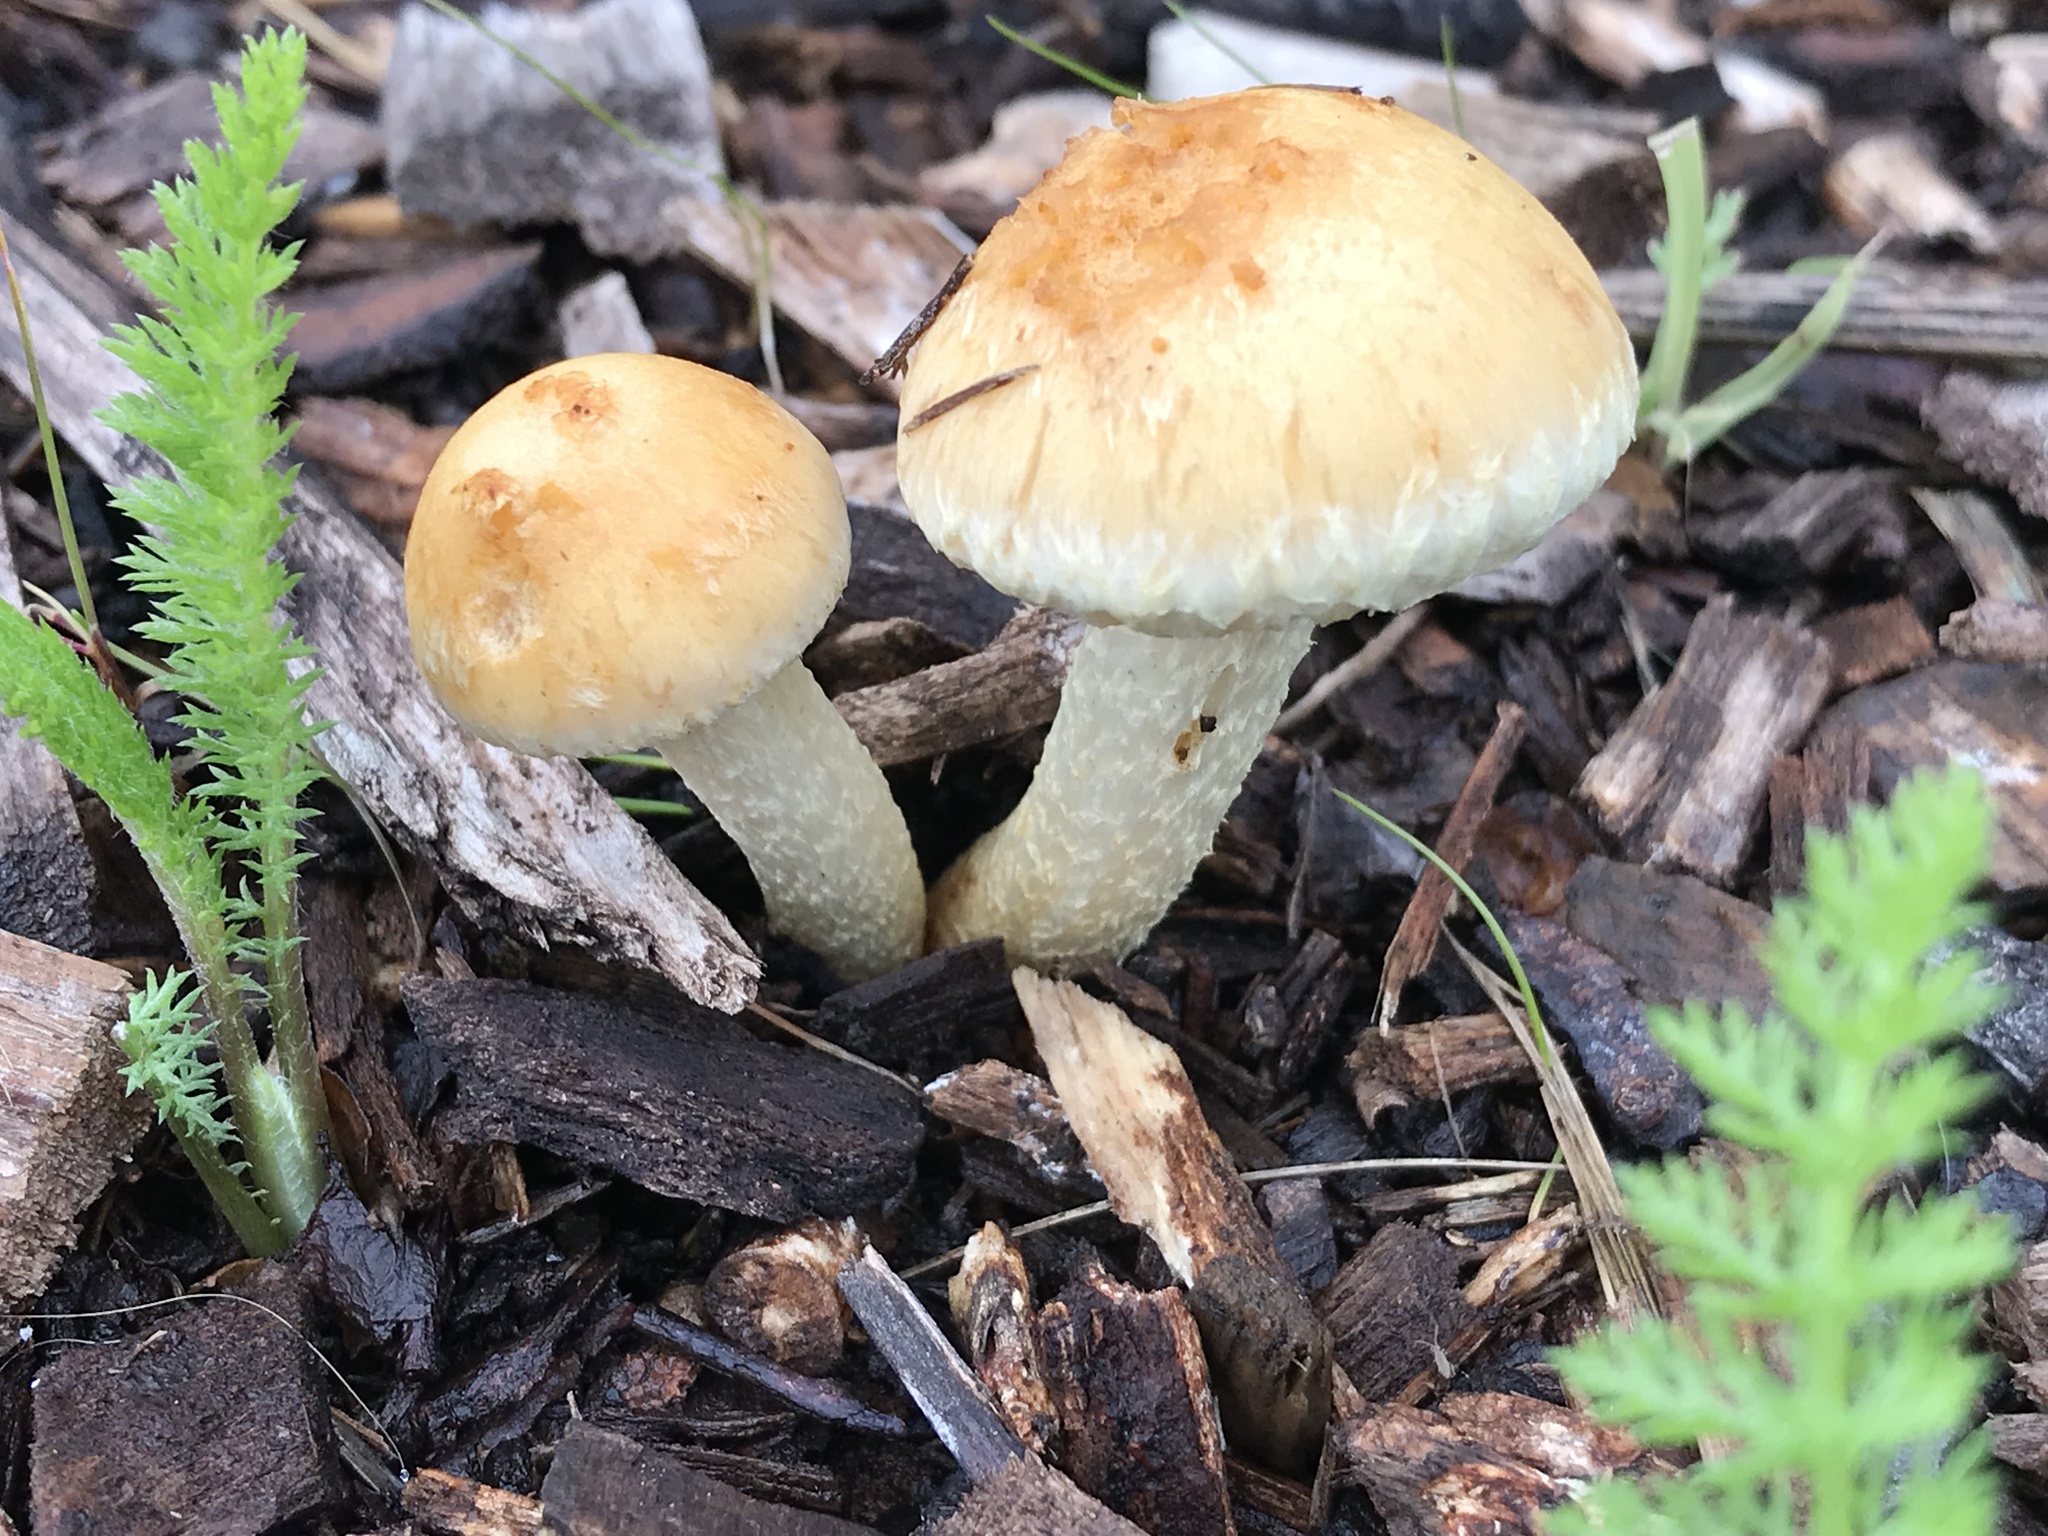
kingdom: Fungi
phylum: Basidiomycota
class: Agaricomycetes
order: Agaricales
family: Strophariaceae
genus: Leratiomyces
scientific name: Leratiomyces percevalii
